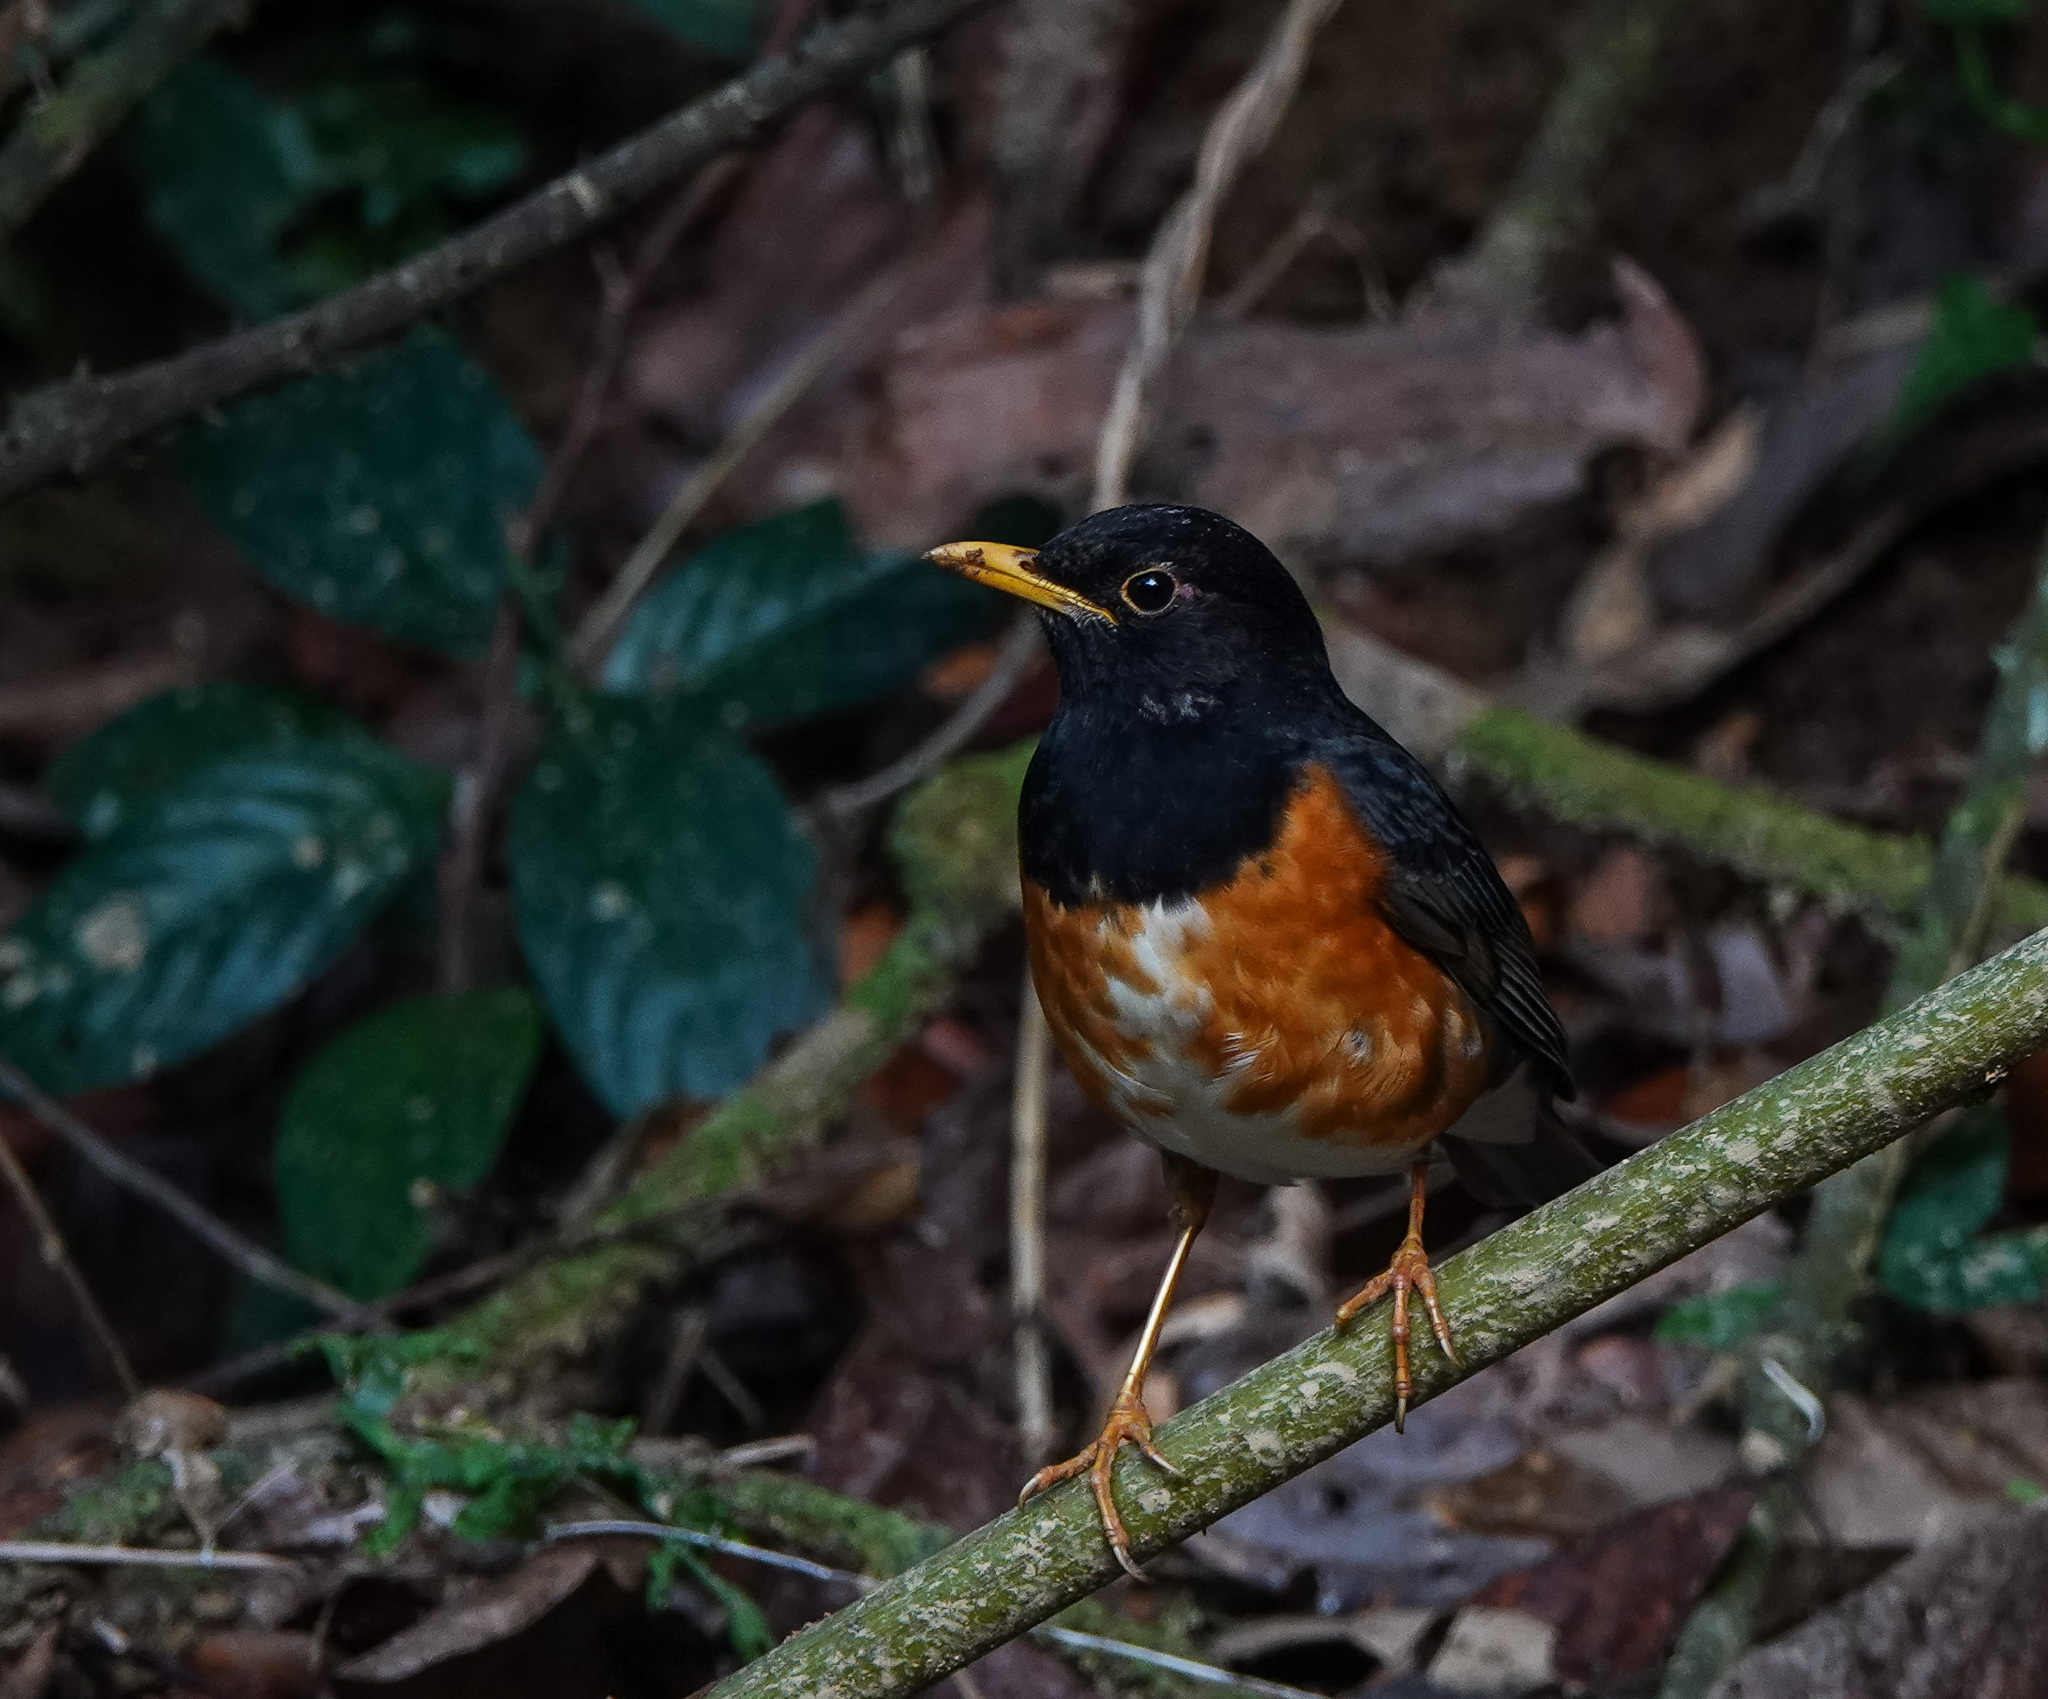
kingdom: Animalia
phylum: Chordata
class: Aves
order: Passeriformes
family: Turdidae
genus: Turdus
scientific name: Turdus dissimilis
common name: Black-breasted thrush
